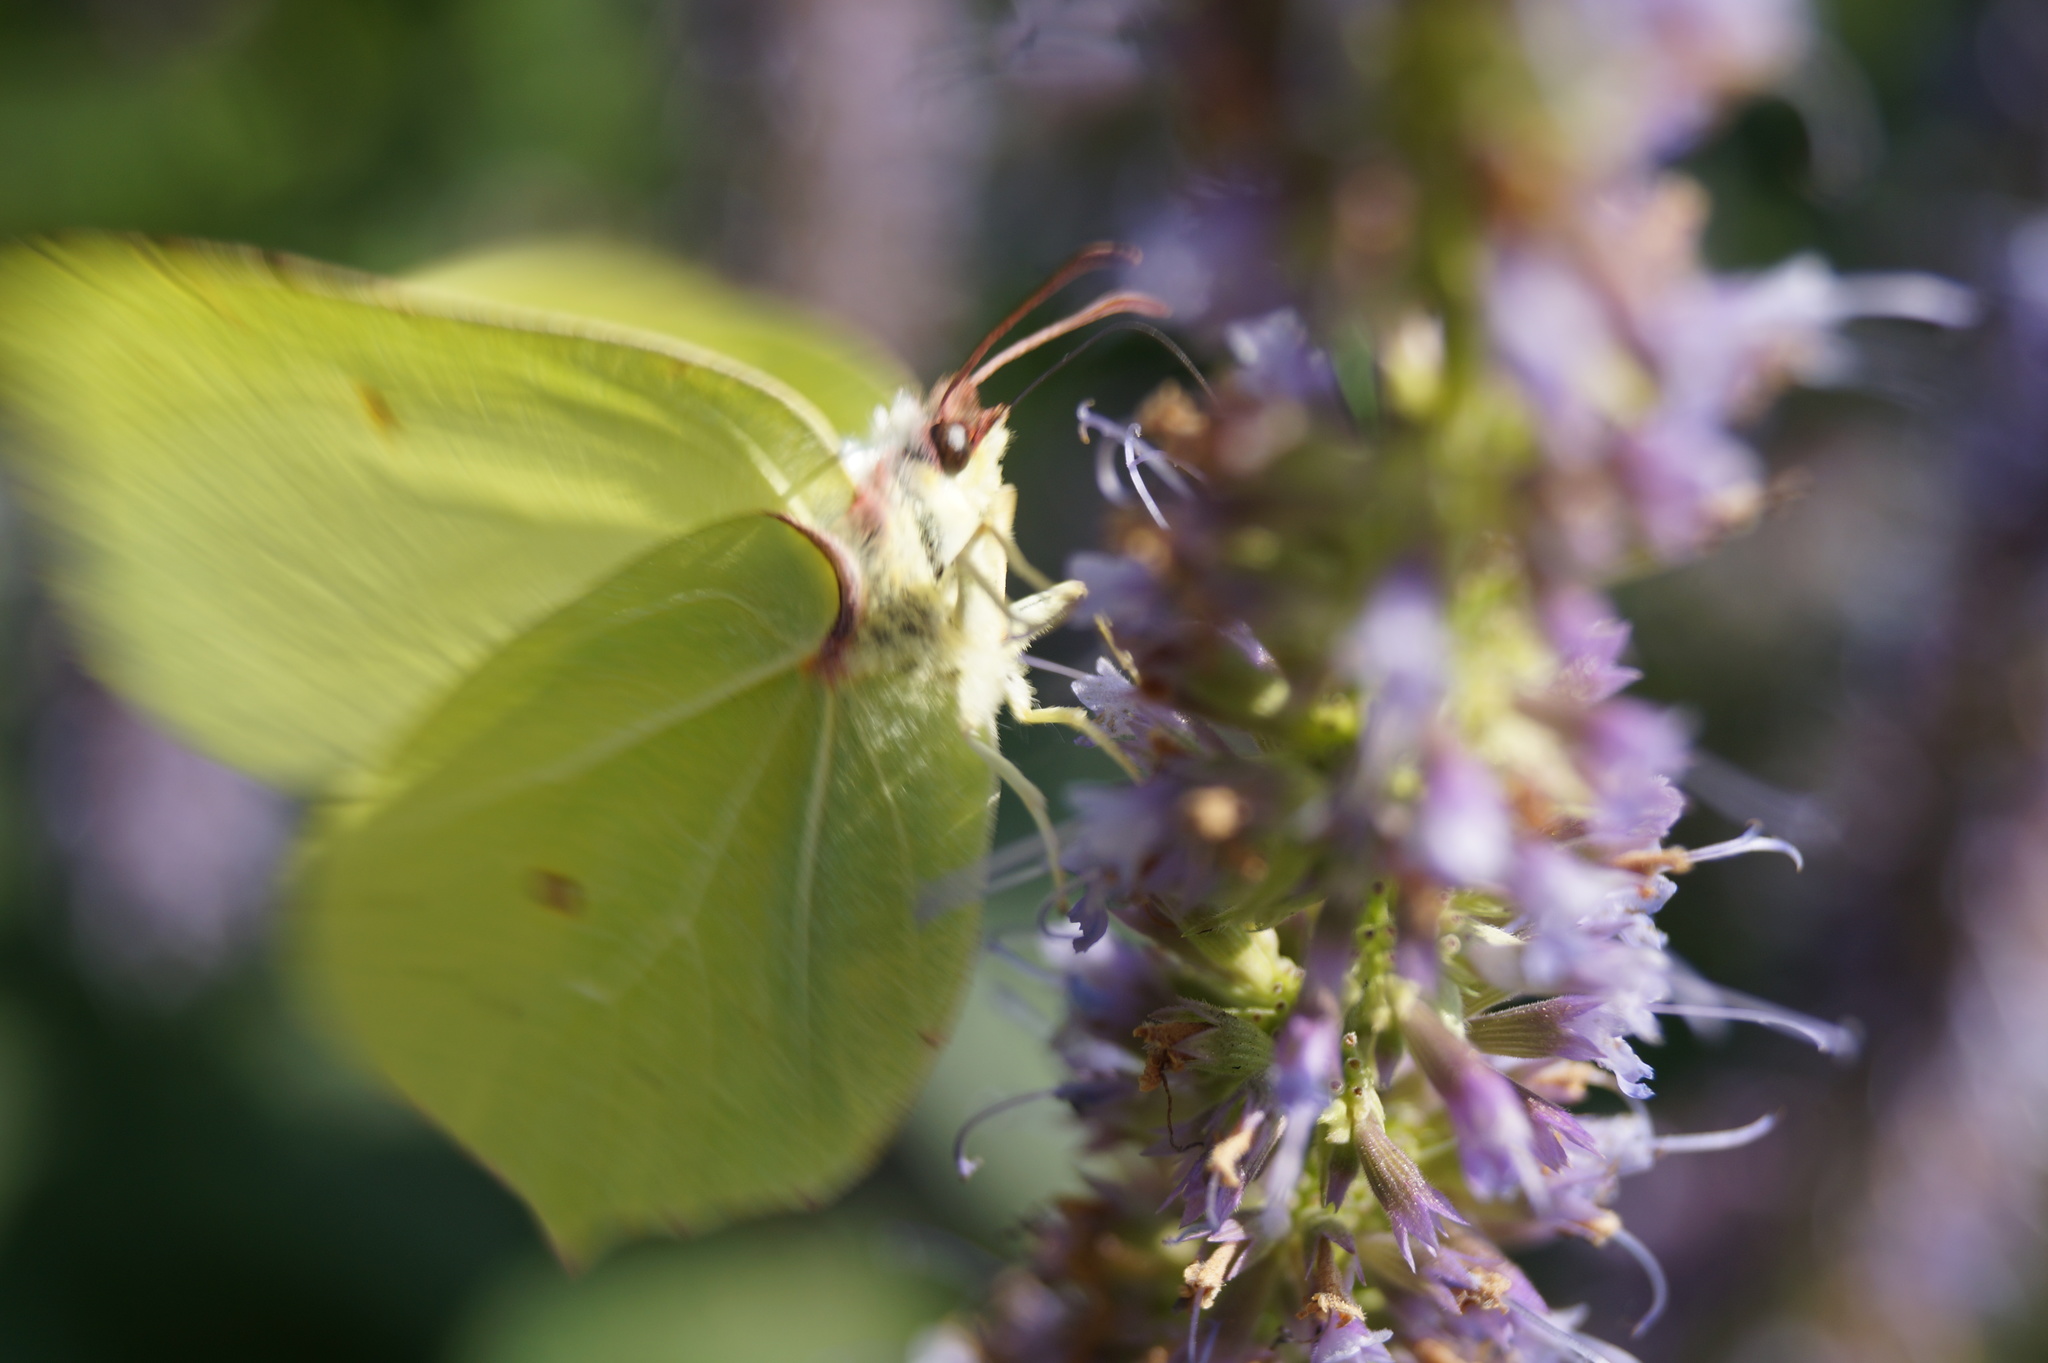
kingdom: Animalia
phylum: Arthropoda
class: Insecta
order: Lepidoptera
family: Pieridae
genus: Gonepteryx
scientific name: Gonepteryx rhamni
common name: Brimstone
